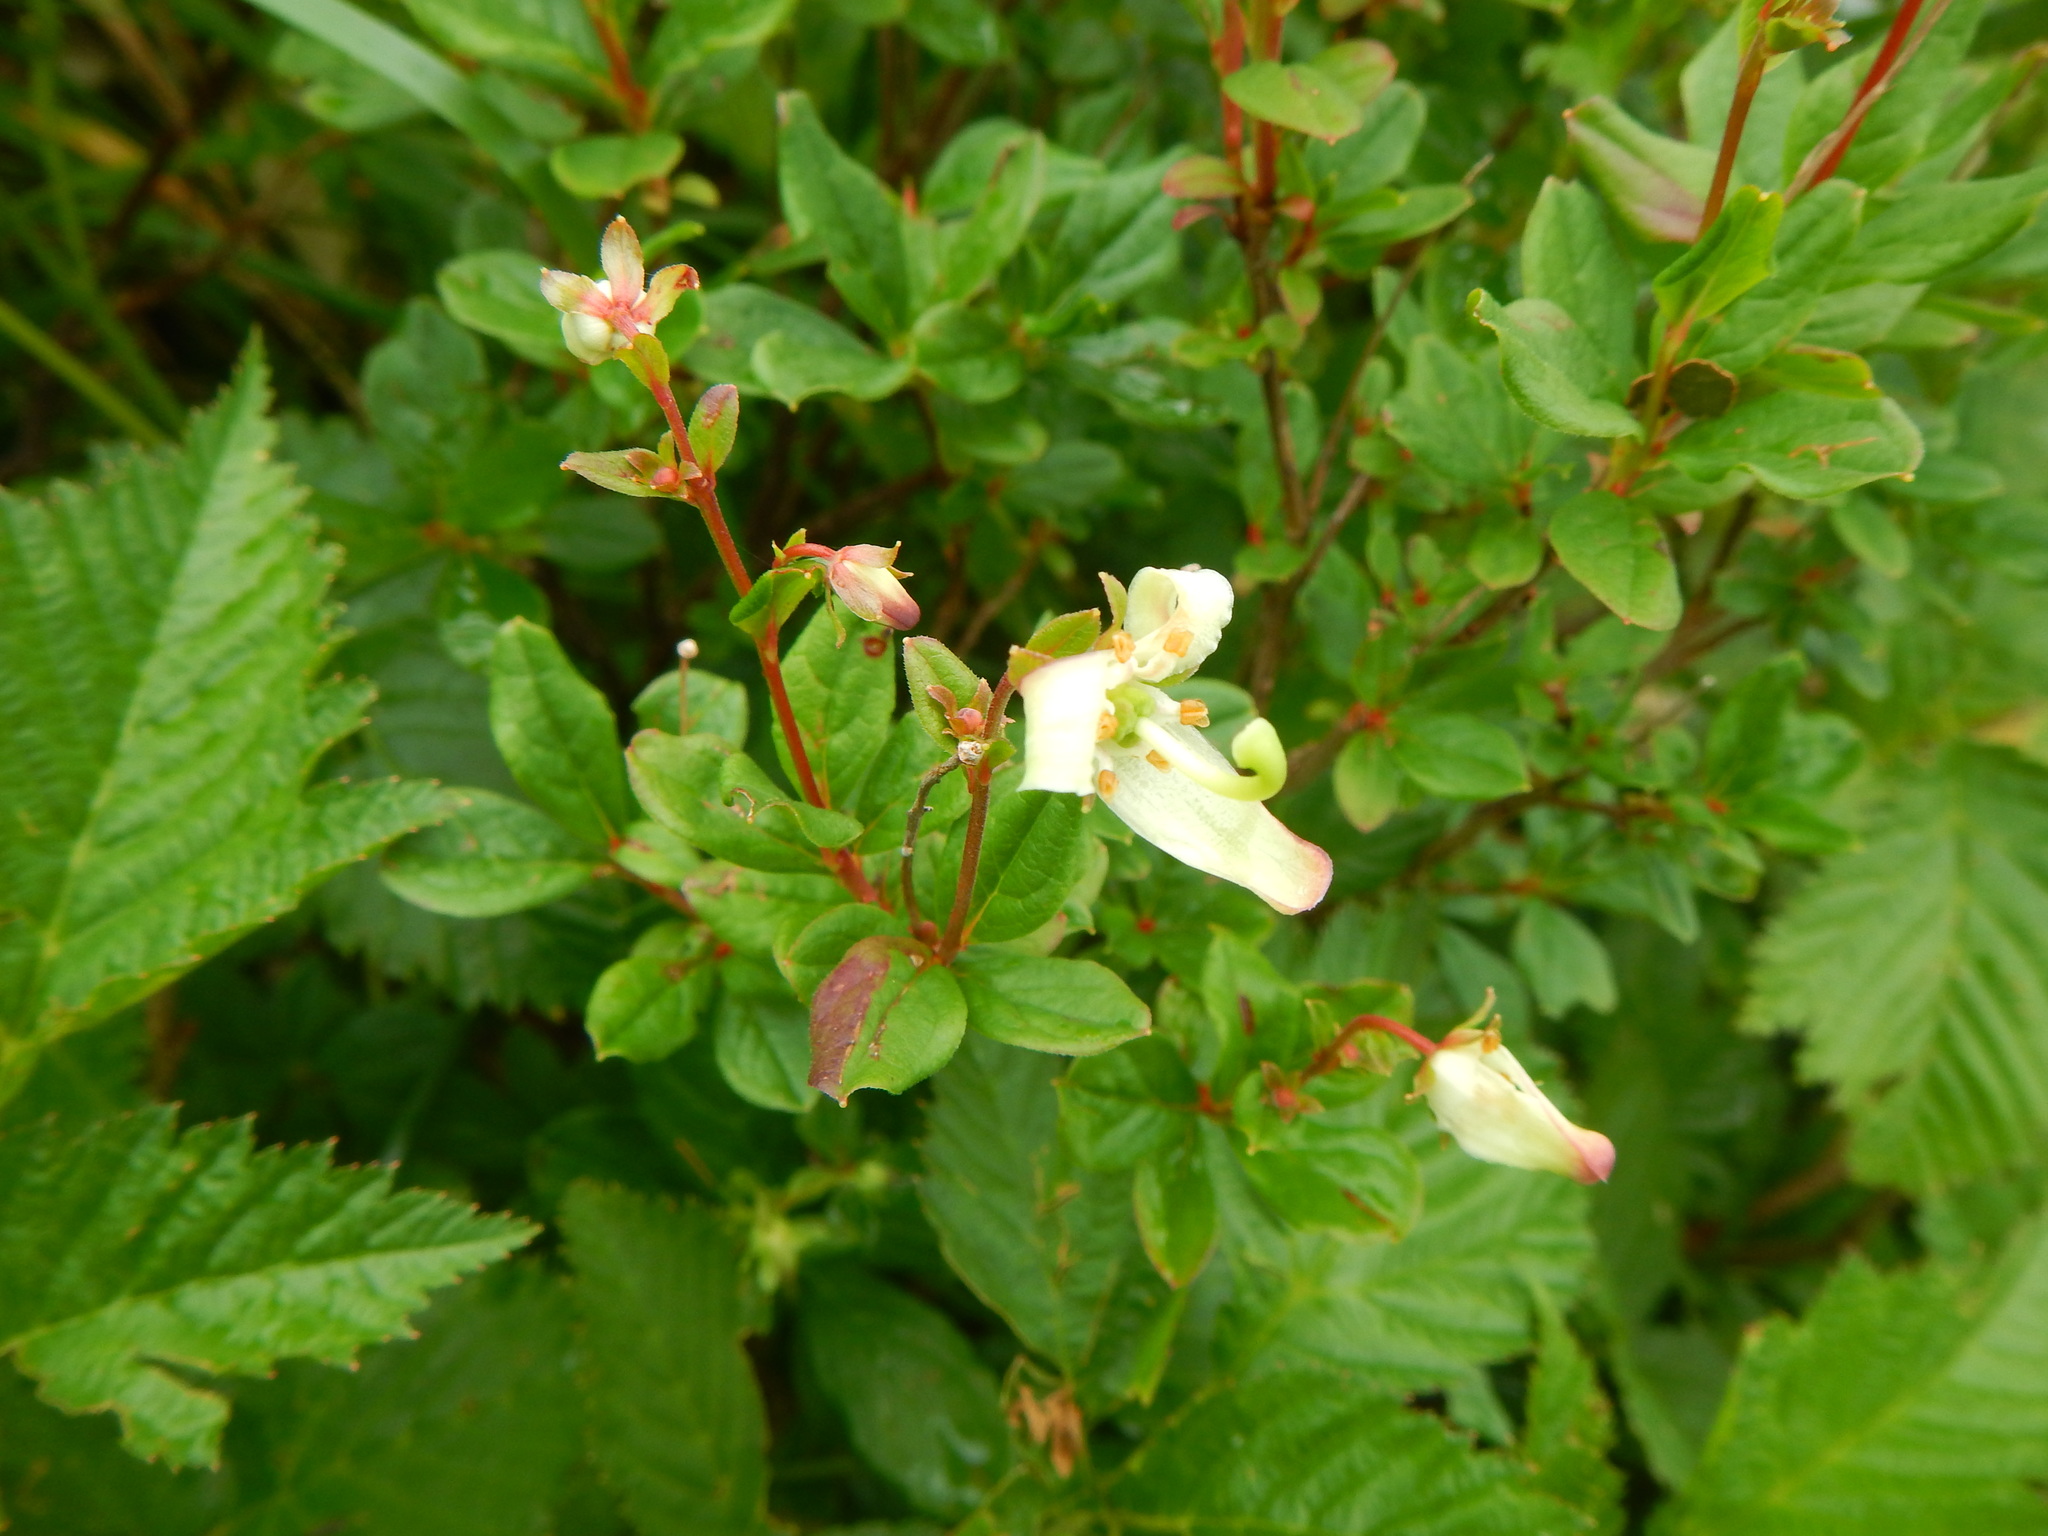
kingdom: Plantae
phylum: Tracheophyta
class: Magnoliopsida
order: Ericales
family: Ericaceae
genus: Elliottia
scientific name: Elliottia bracteata
